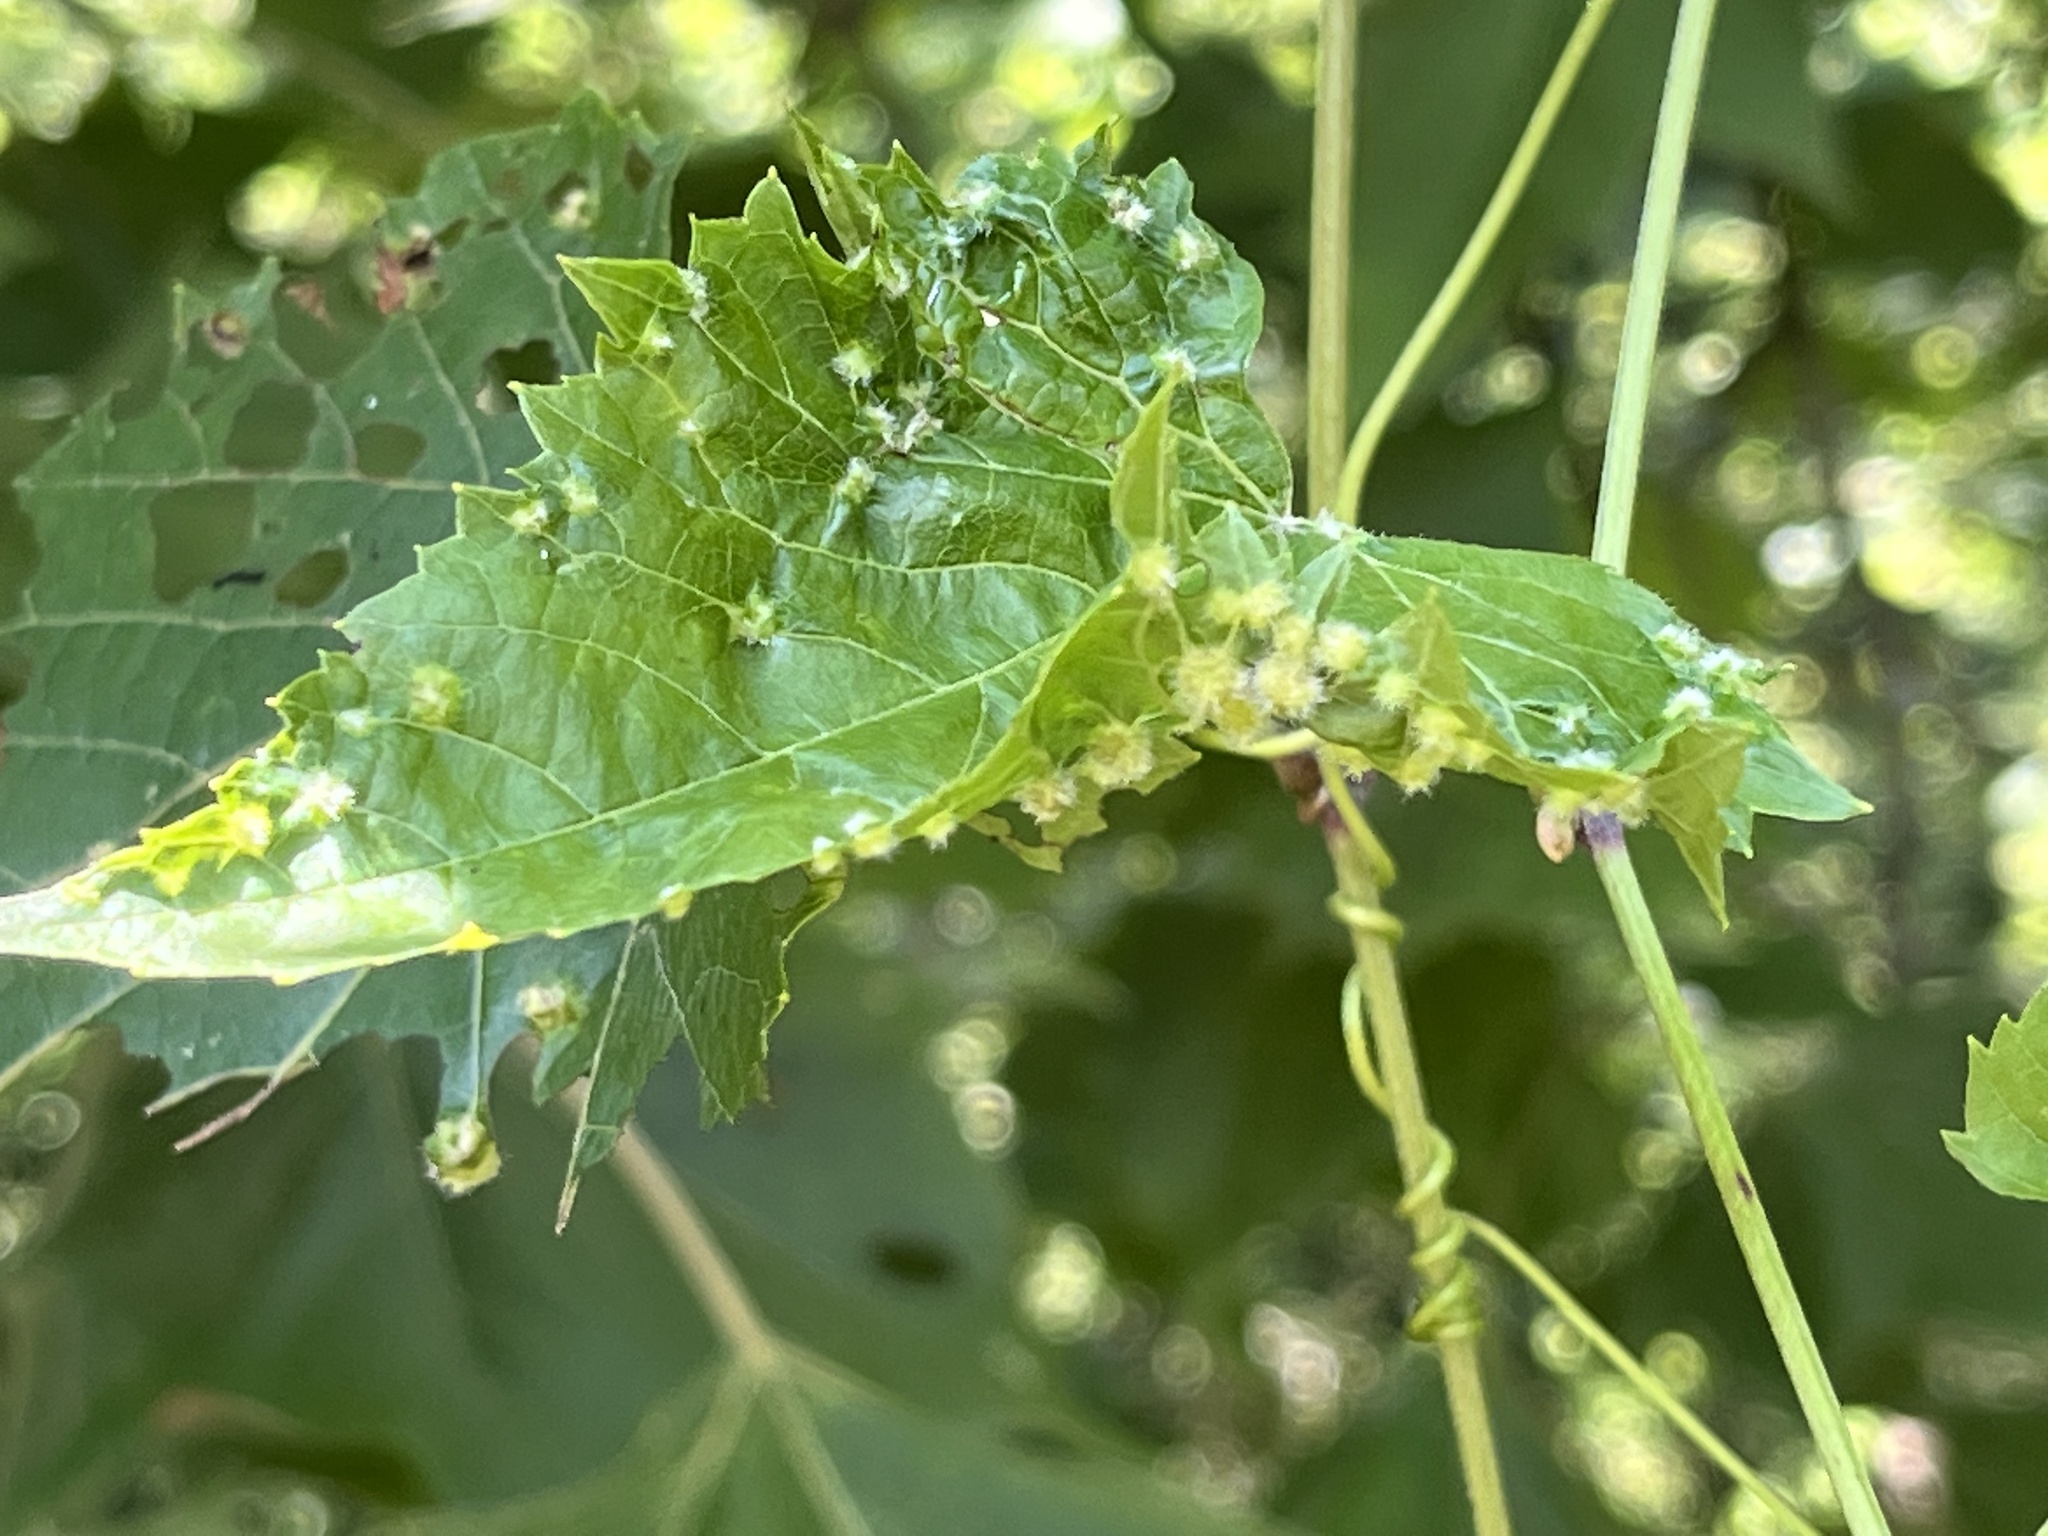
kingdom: Animalia
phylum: Arthropoda
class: Insecta
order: Hemiptera
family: Phylloxeridae
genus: Daktulosphaira
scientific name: Daktulosphaira vitifoliae
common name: Grape phylloxera
